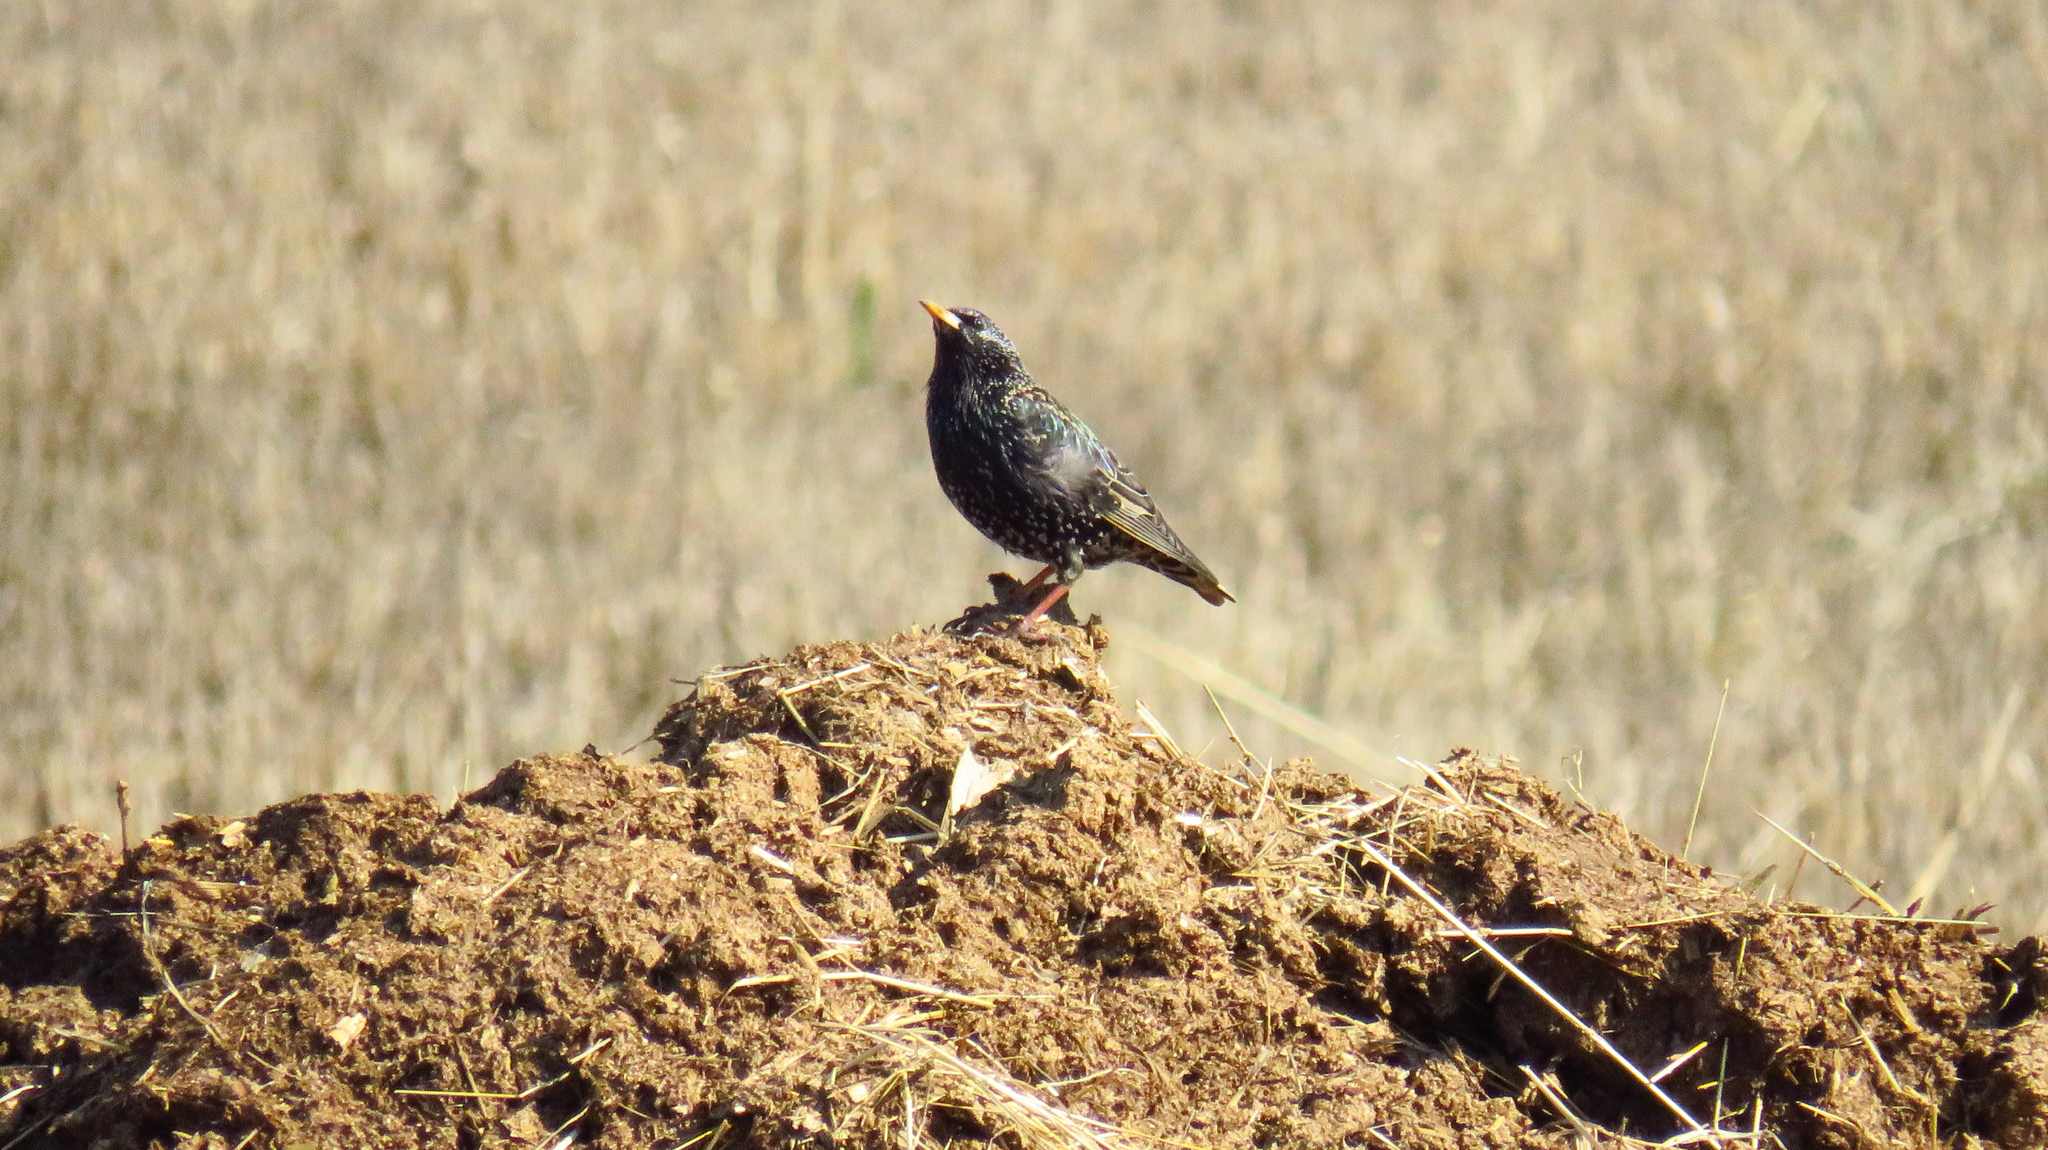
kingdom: Animalia
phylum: Chordata
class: Aves
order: Passeriformes
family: Sturnidae
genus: Sturnus
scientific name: Sturnus vulgaris
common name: Common starling
